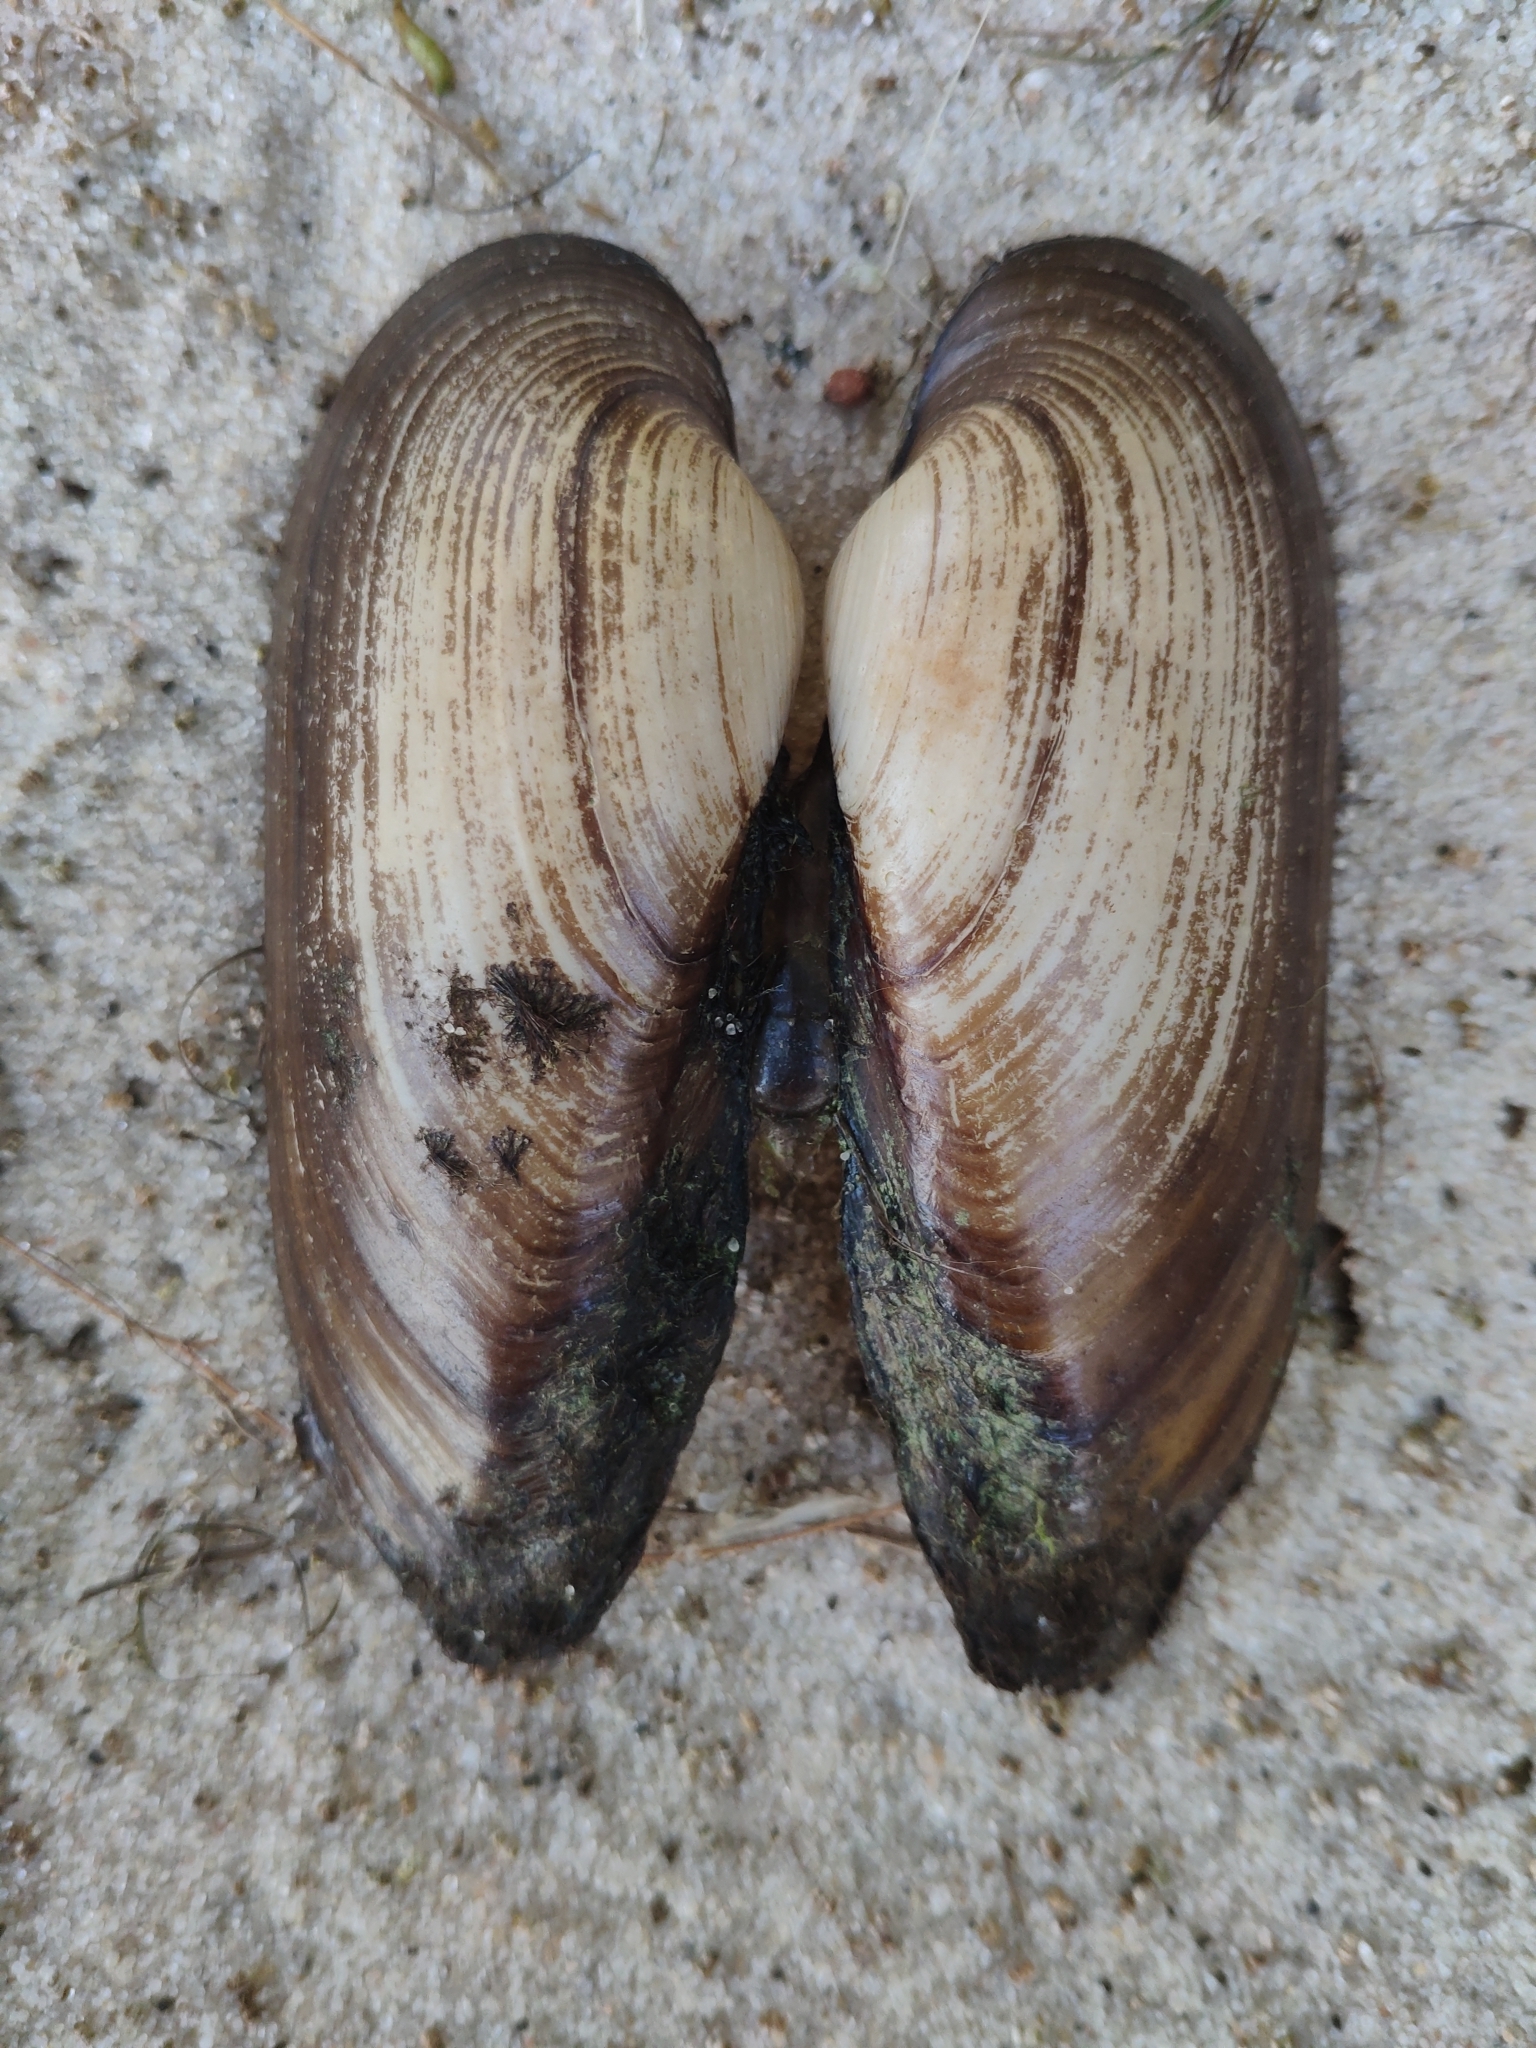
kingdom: Animalia
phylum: Mollusca
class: Bivalvia
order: Unionida
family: Unionidae
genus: Unio
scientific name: Unio pictorum
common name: Painter's mussel
